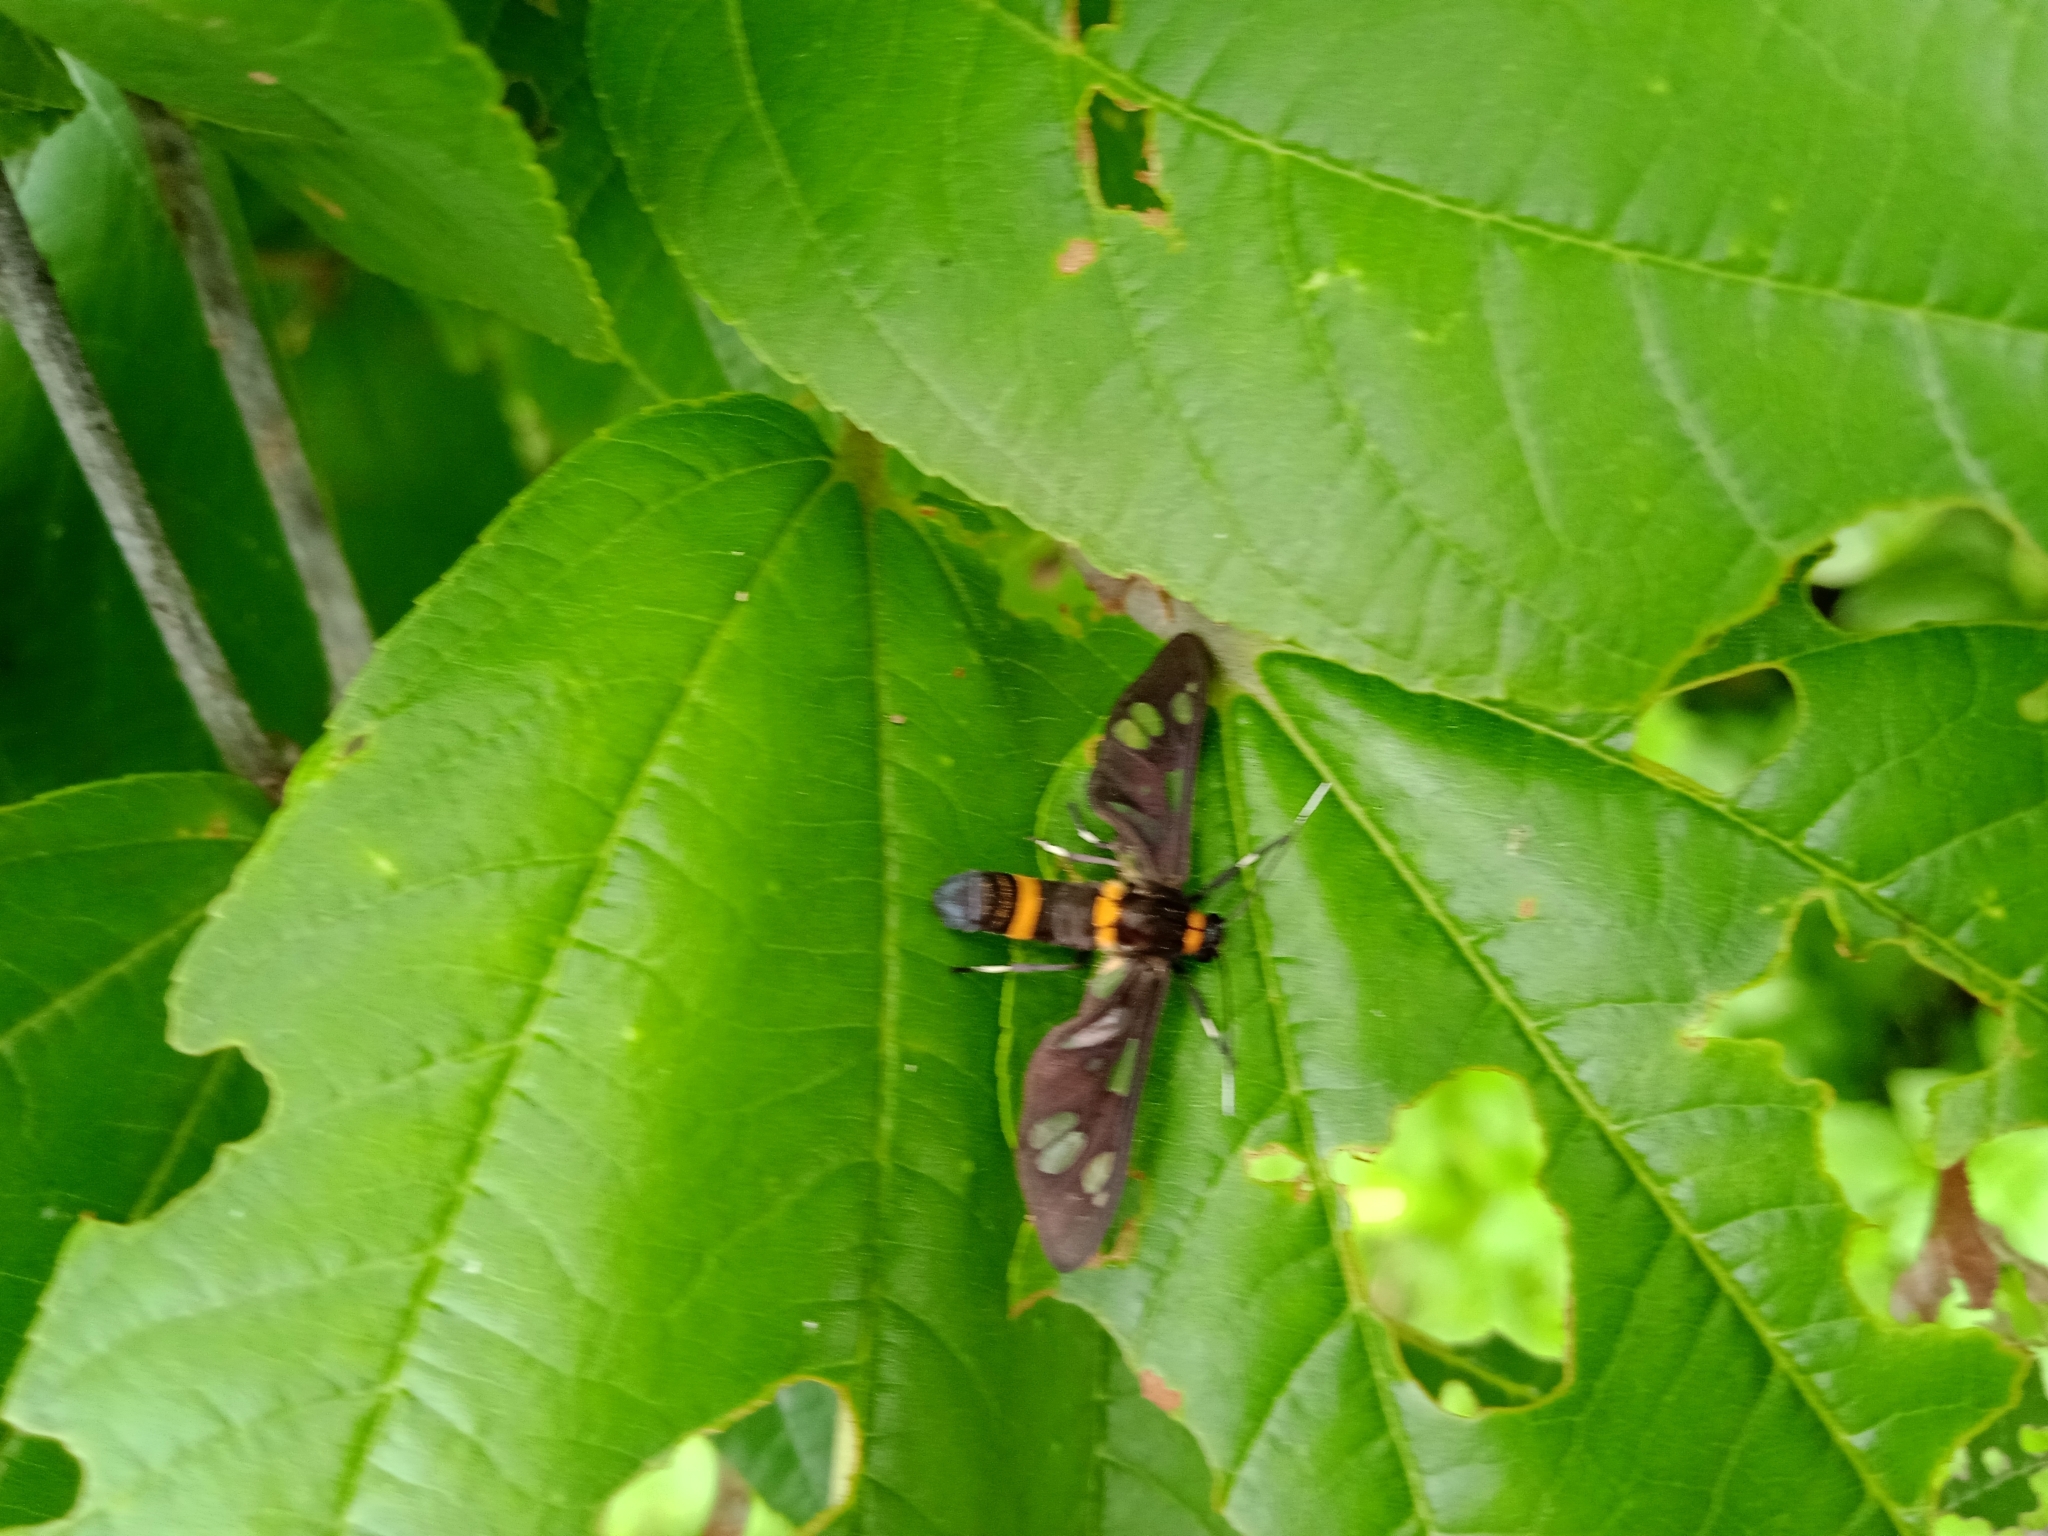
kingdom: Animalia
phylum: Arthropoda
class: Insecta
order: Lepidoptera
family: Erebidae
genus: Syntomoides
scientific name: Syntomoides imaon
